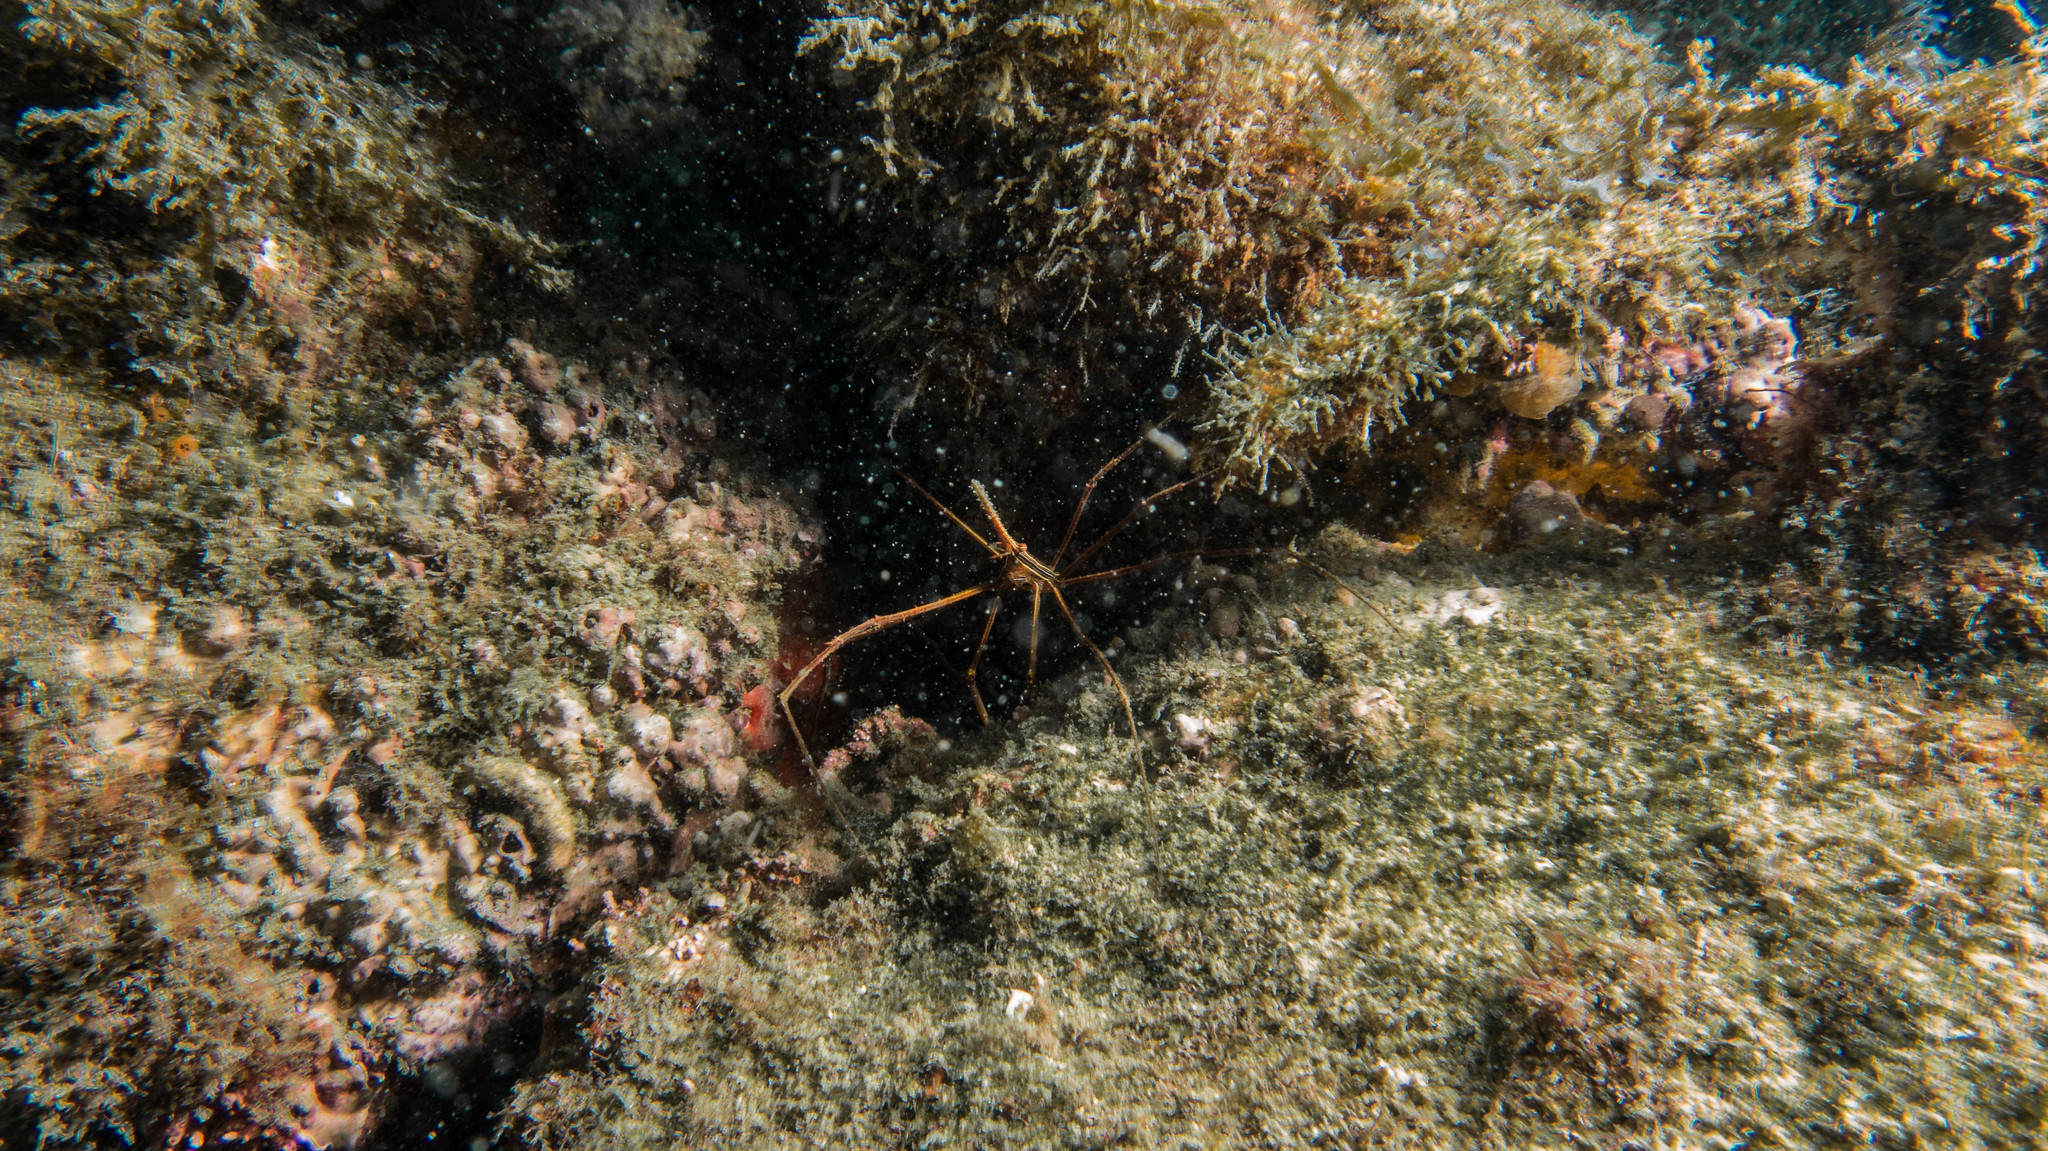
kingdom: Animalia
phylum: Arthropoda
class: Malacostraca
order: Decapoda
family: Inachoididae
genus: Stenorhynchus
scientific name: Stenorhynchus seticornis
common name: Arrow crab
